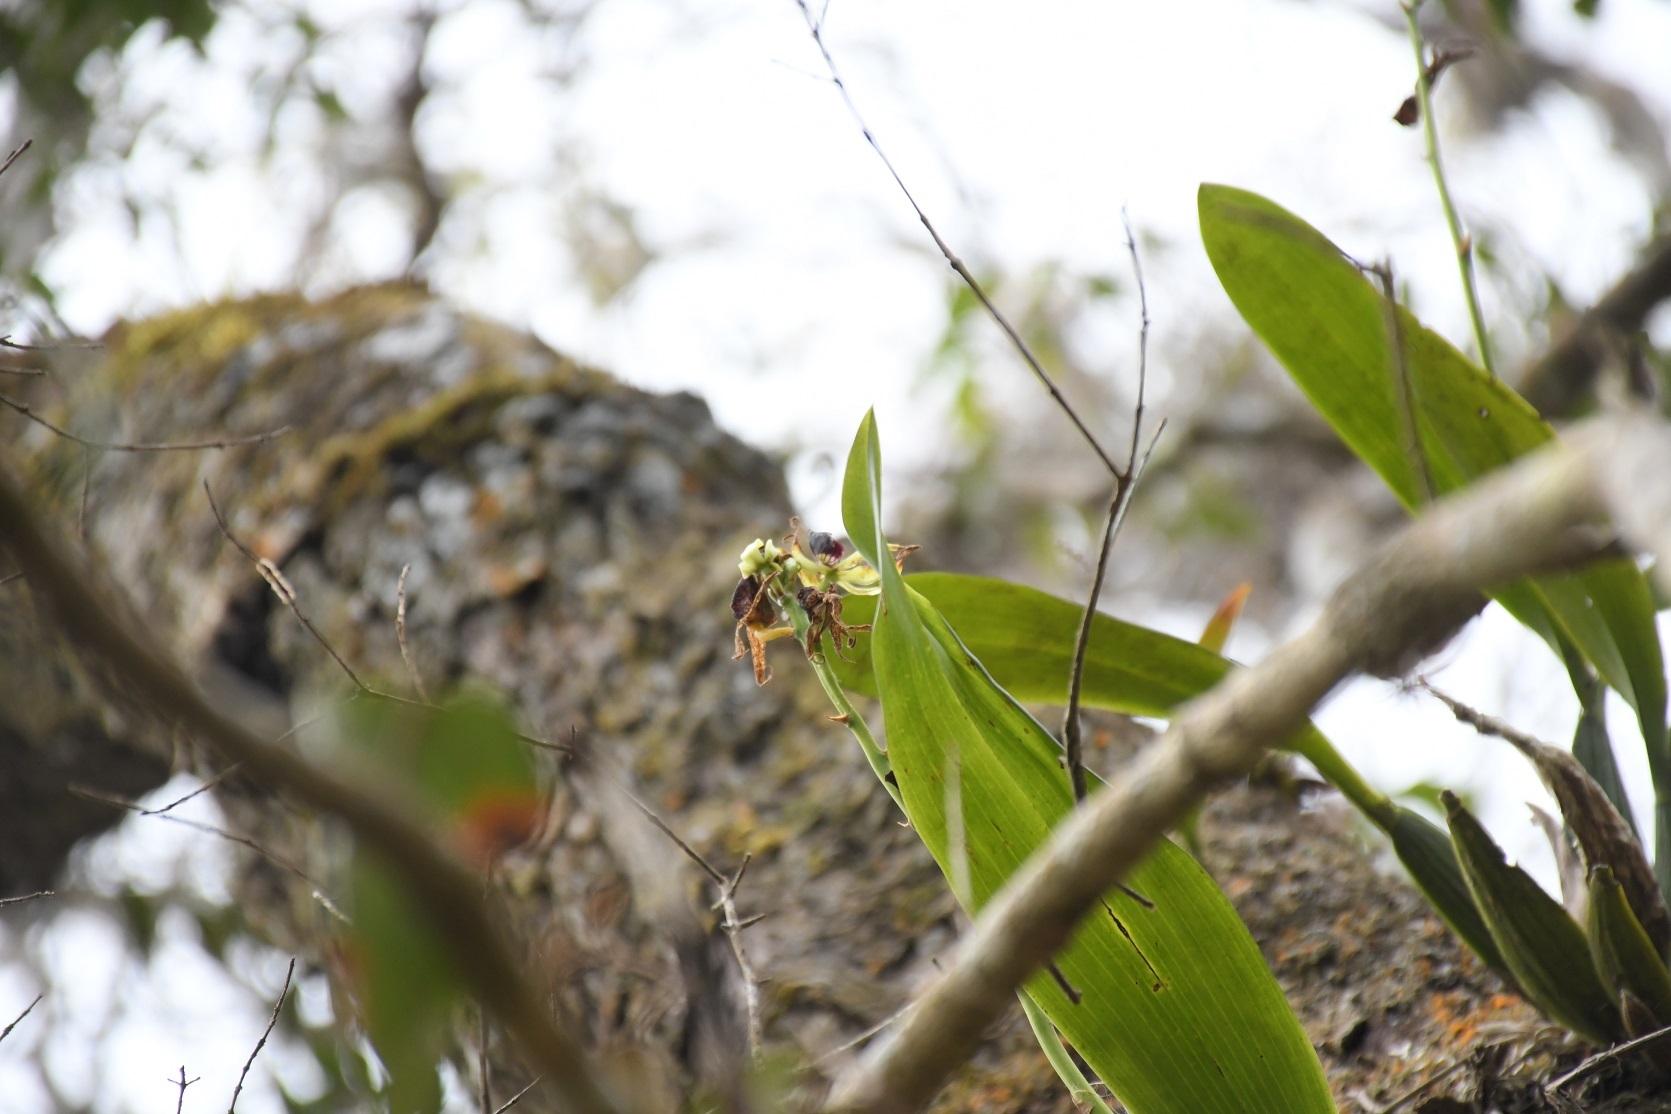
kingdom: Plantae
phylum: Tracheophyta
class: Liliopsida
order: Asparagales
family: Orchidaceae
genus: Prosthechea
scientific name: Prosthechea cochleata
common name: Clamshell orchid
